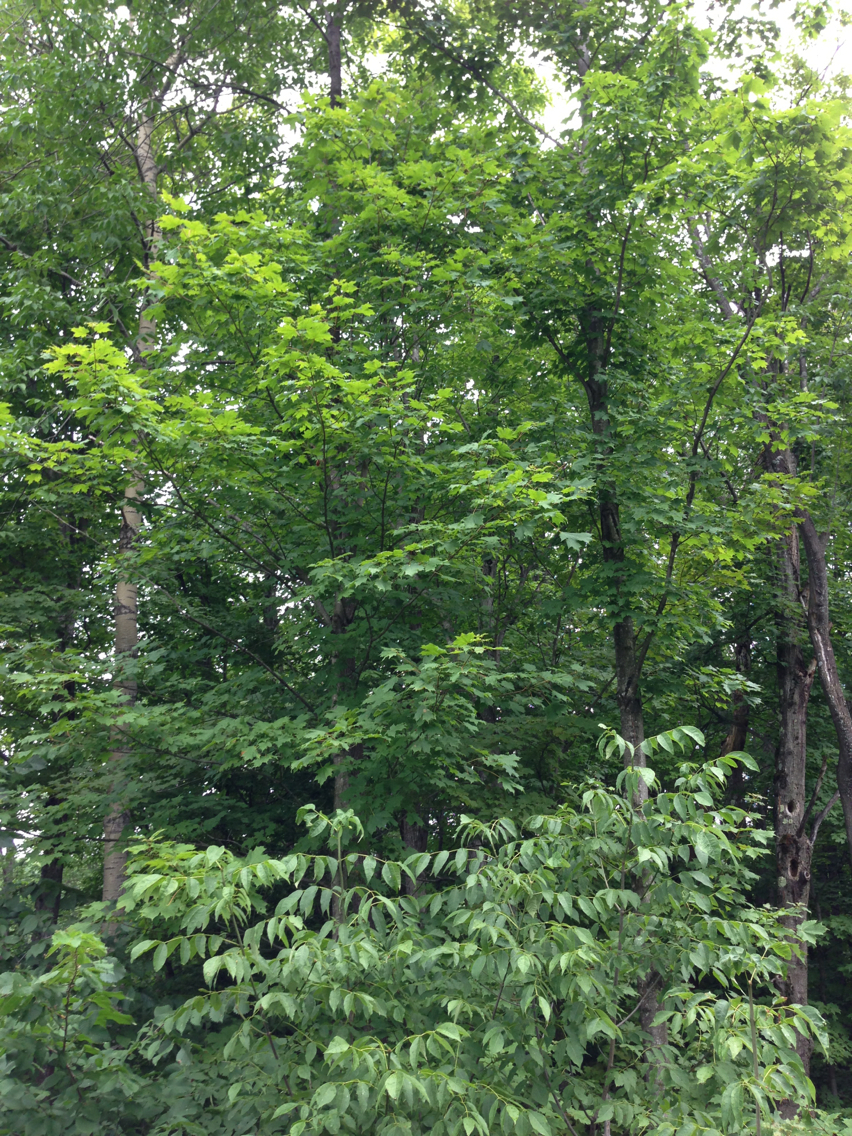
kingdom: Plantae
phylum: Tracheophyta
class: Magnoliopsida
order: Sapindales
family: Sapindaceae
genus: Acer
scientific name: Acer saccharum
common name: Sugar maple
